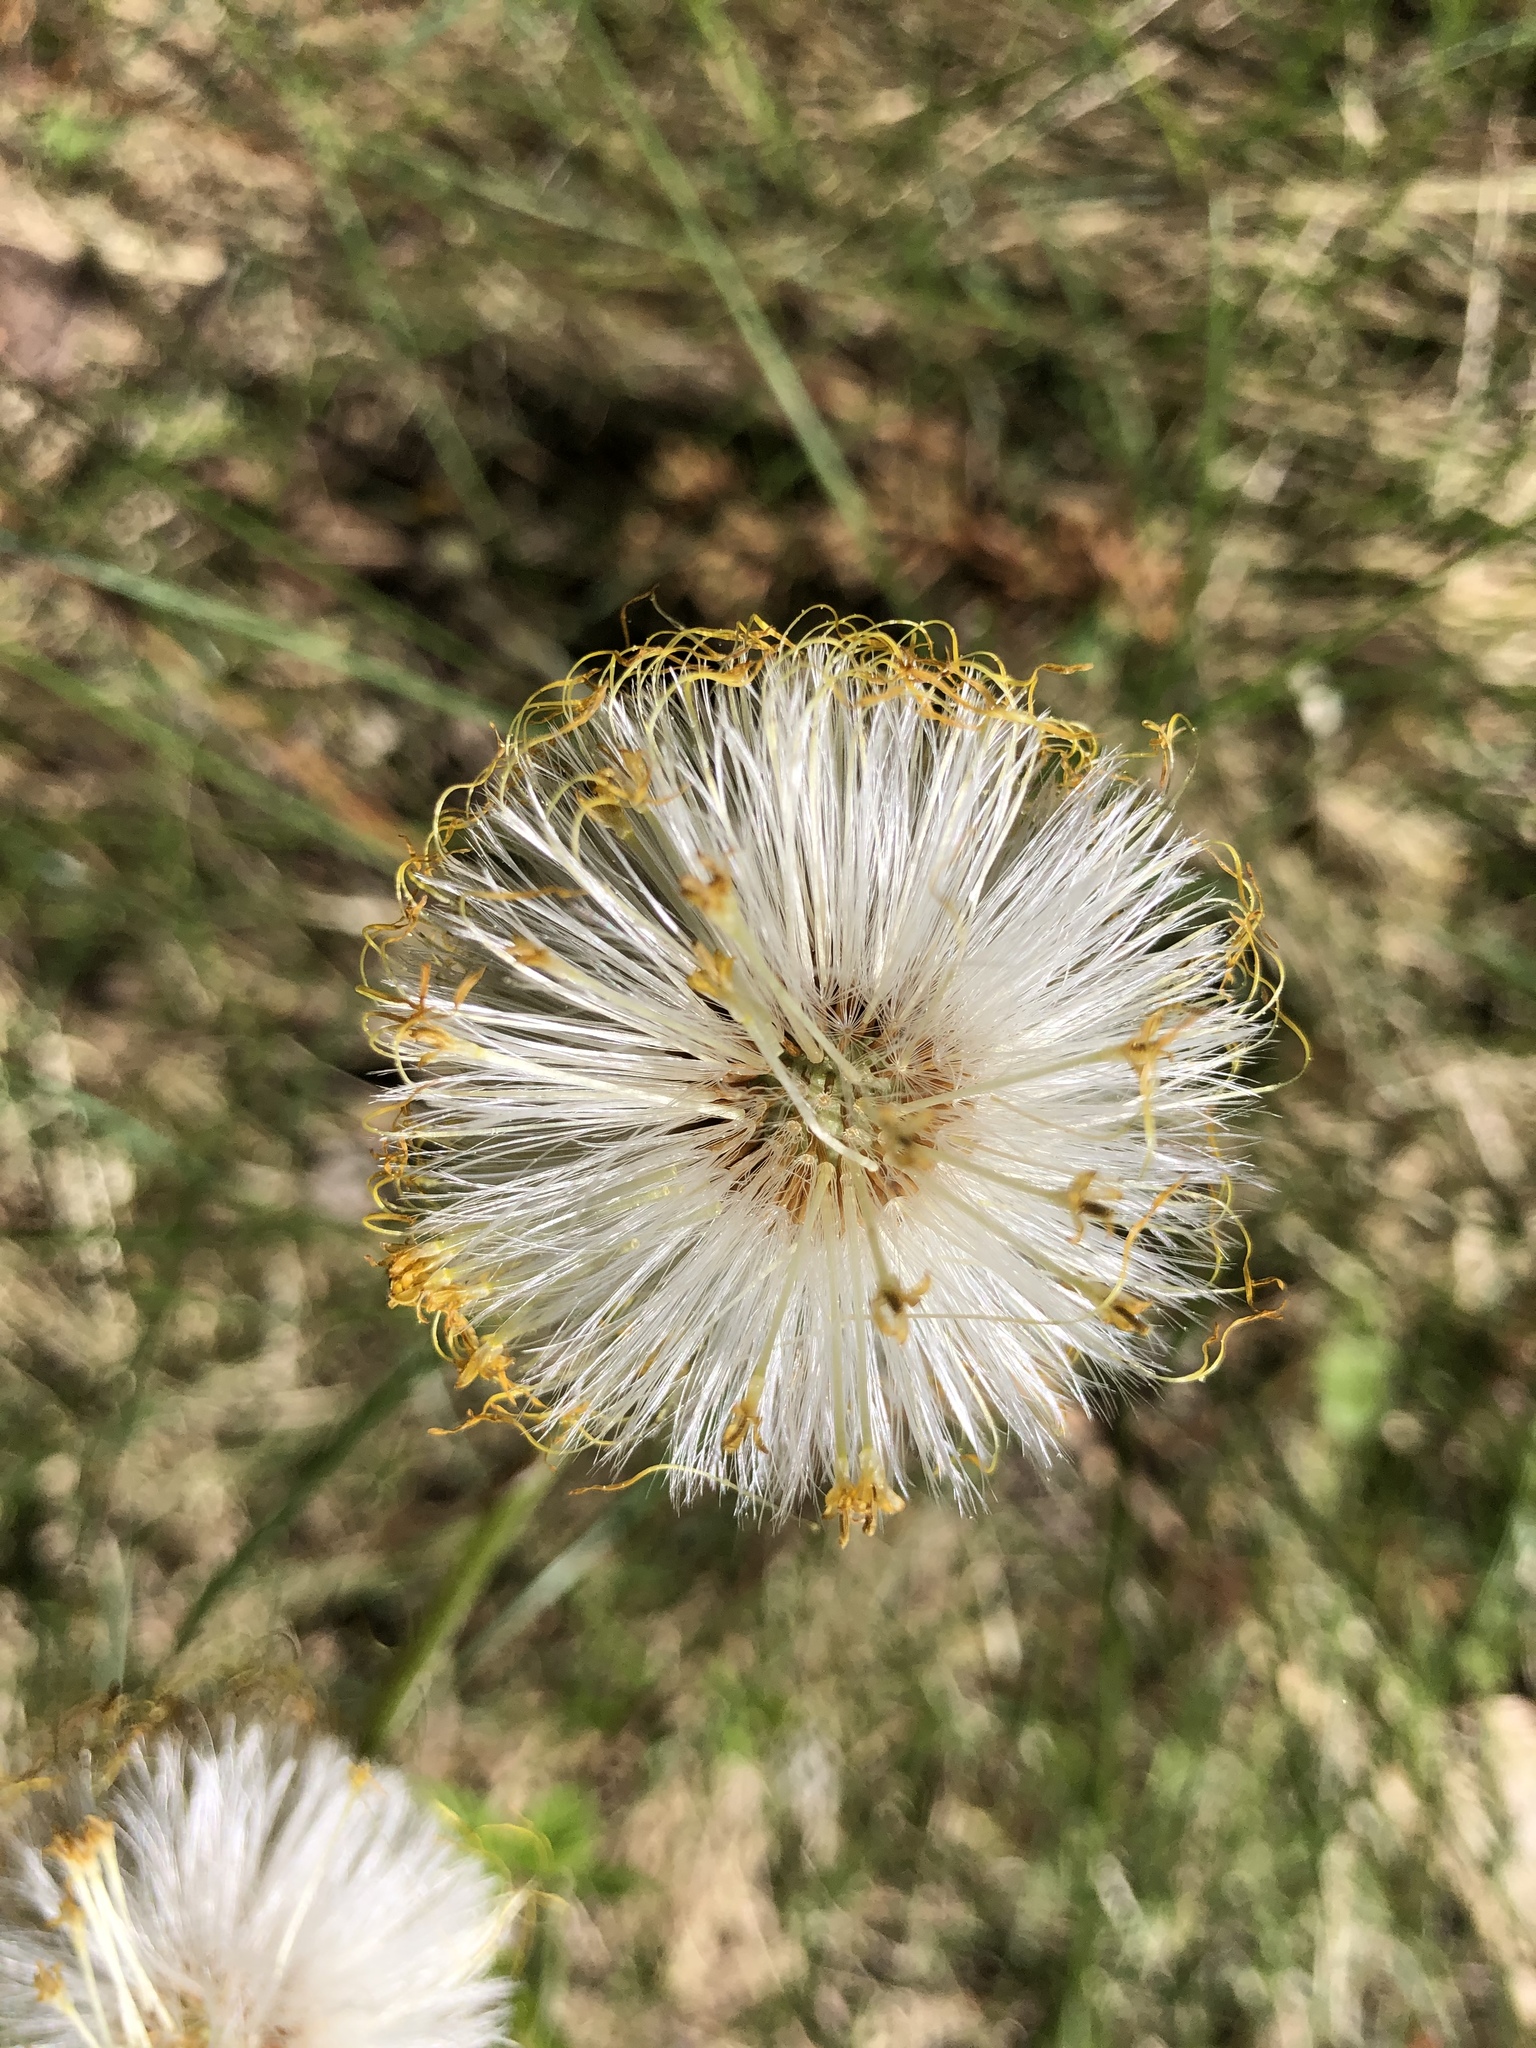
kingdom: Plantae
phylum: Tracheophyta
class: Magnoliopsida
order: Asterales
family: Asteraceae
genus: Tussilago
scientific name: Tussilago farfara
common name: Coltsfoot
